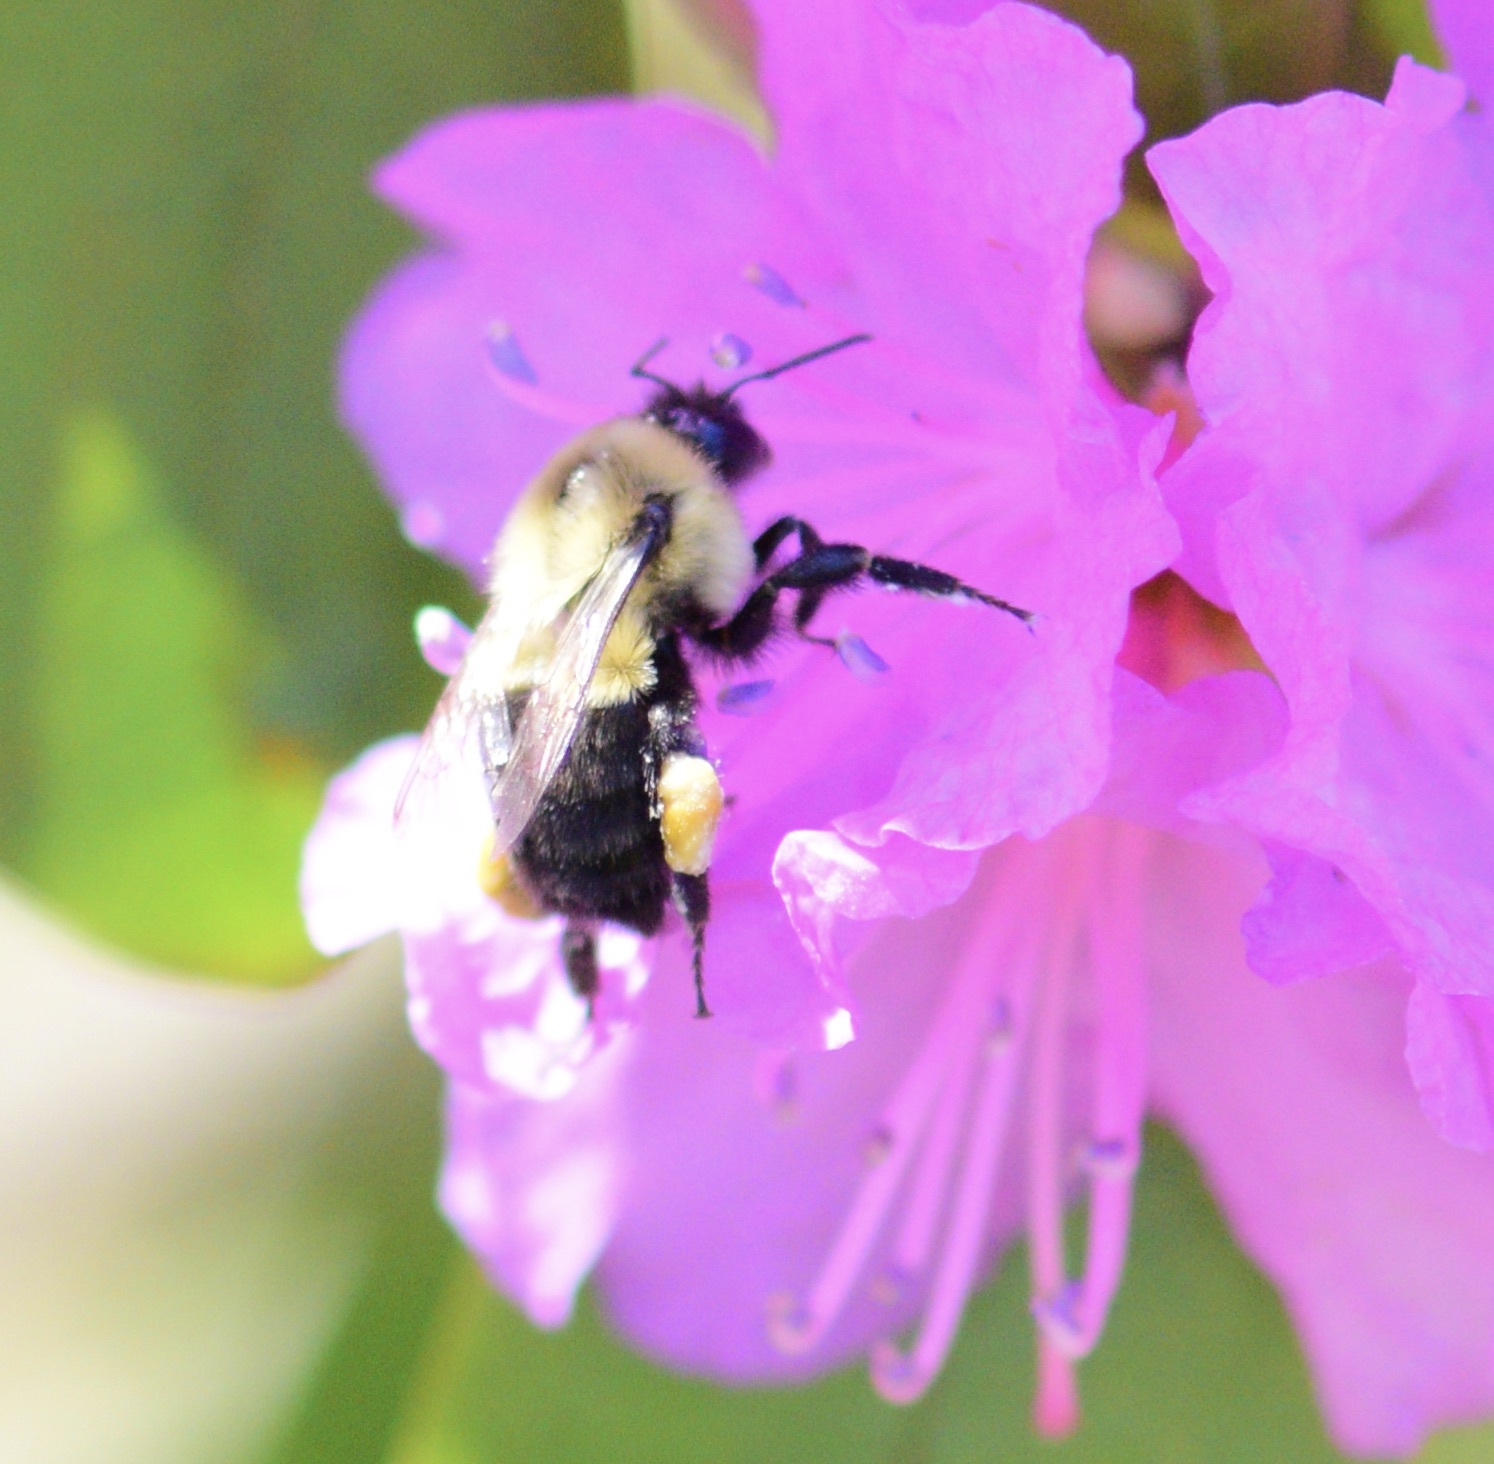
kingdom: Animalia
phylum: Arthropoda
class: Insecta
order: Hymenoptera
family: Apidae
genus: Bombus
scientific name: Bombus impatiens
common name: Common eastern bumble bee
